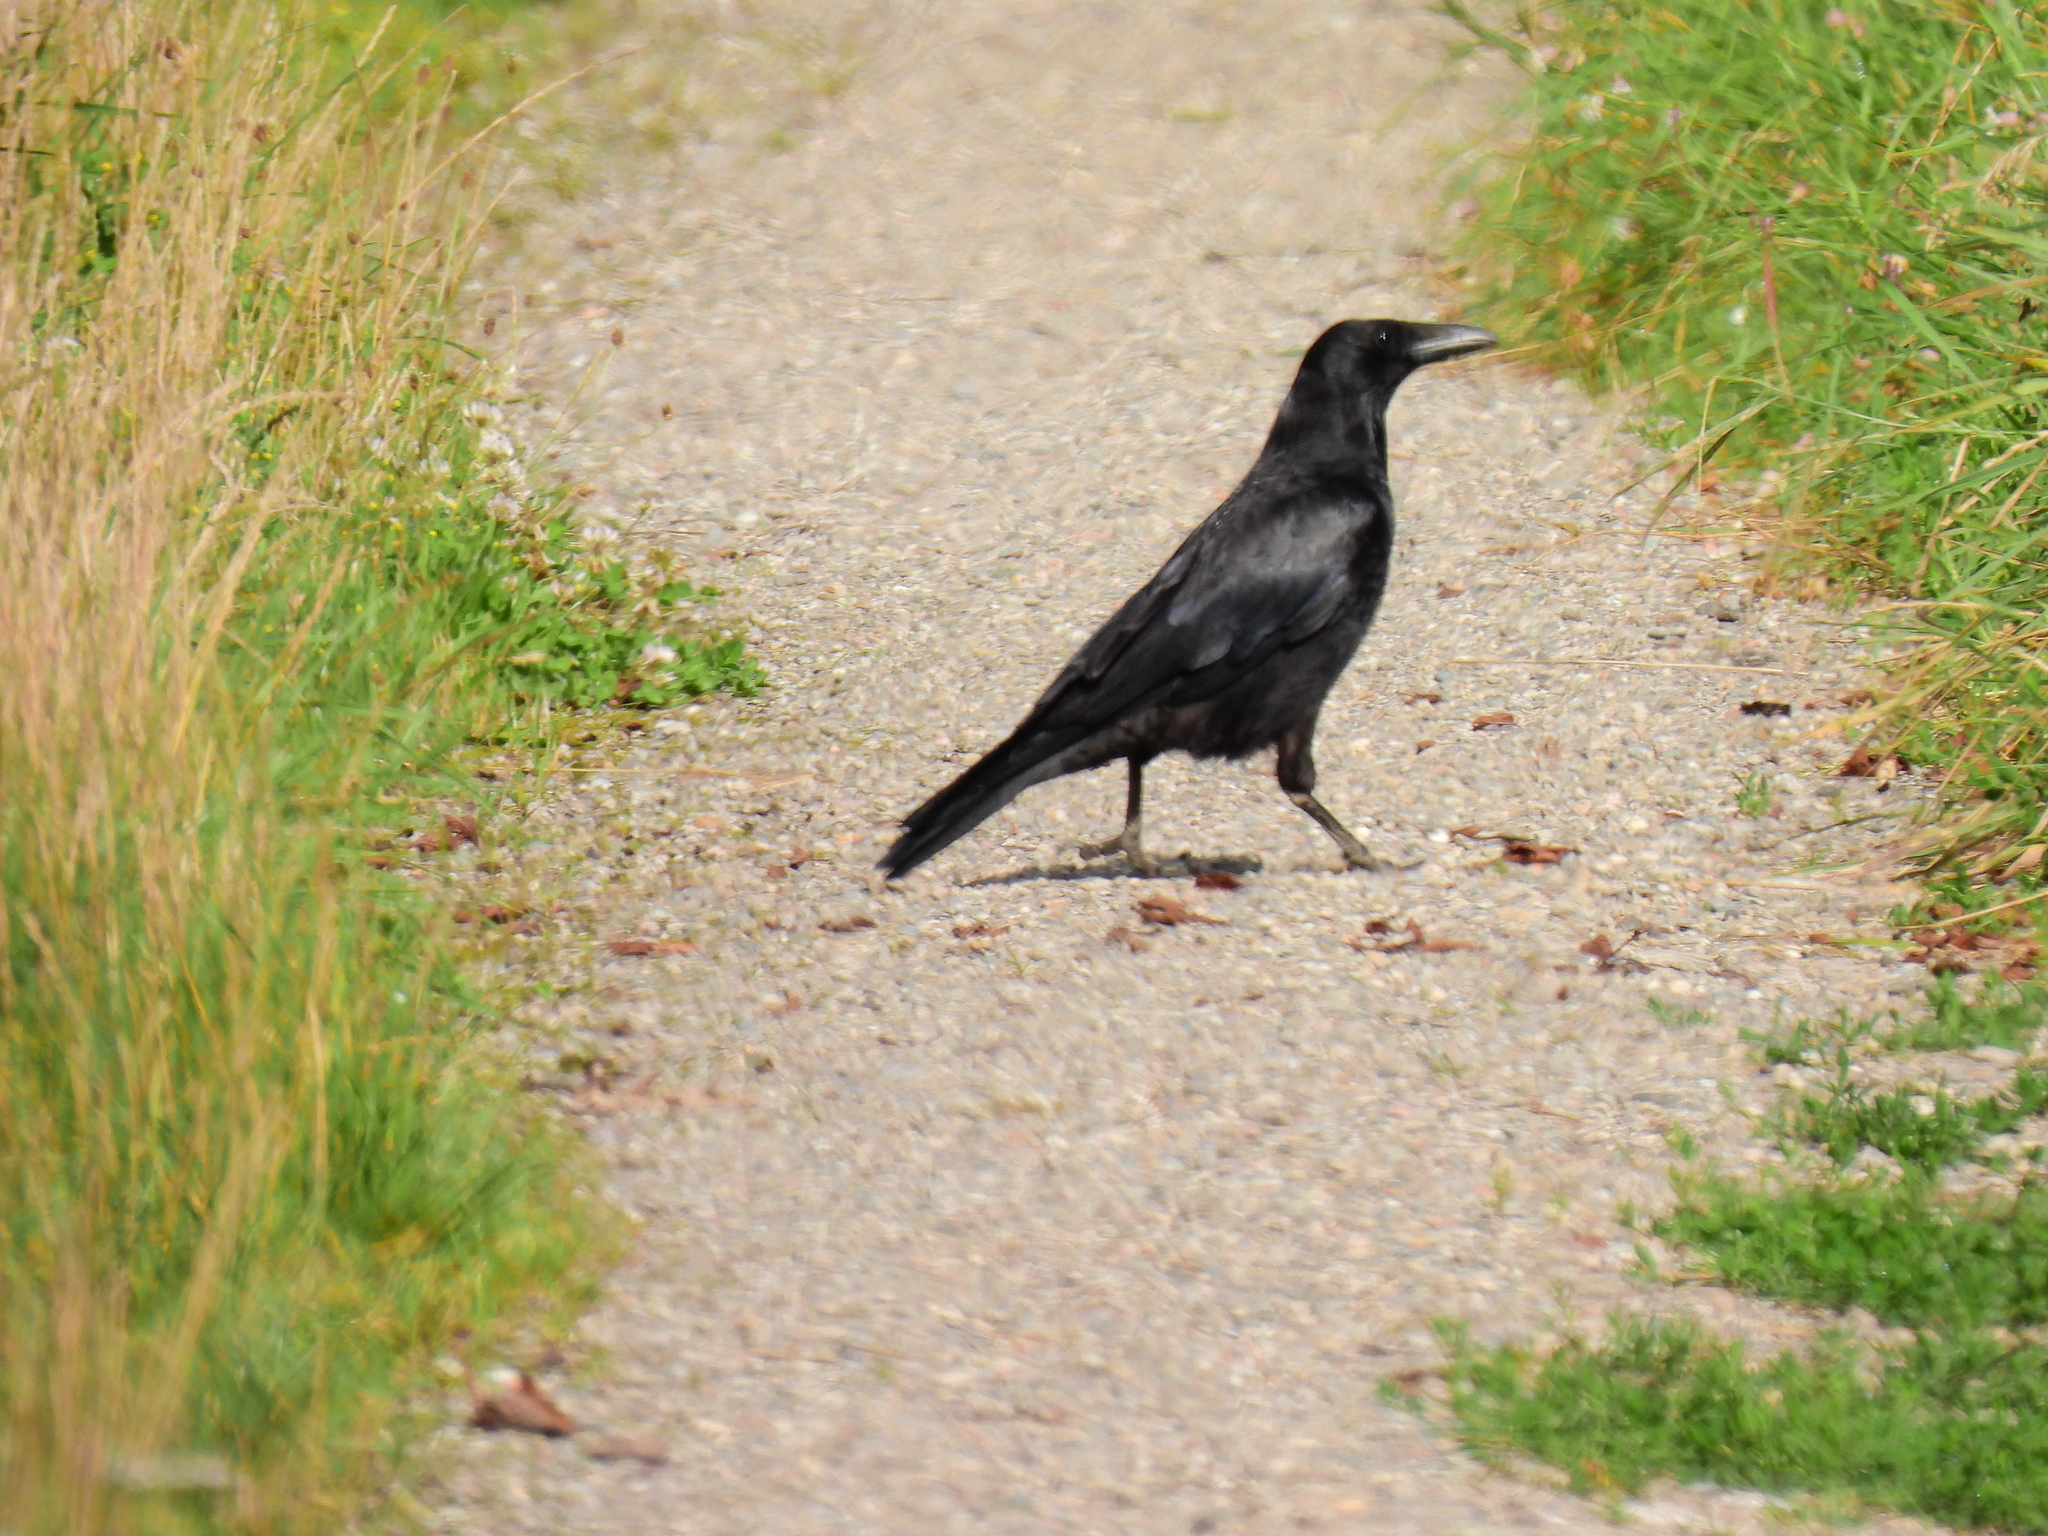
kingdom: Animalia
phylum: Chordata
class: Aves
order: Passeriformes
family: Corvidae
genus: Corvus
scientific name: Corvus corone
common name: Carrion crow
